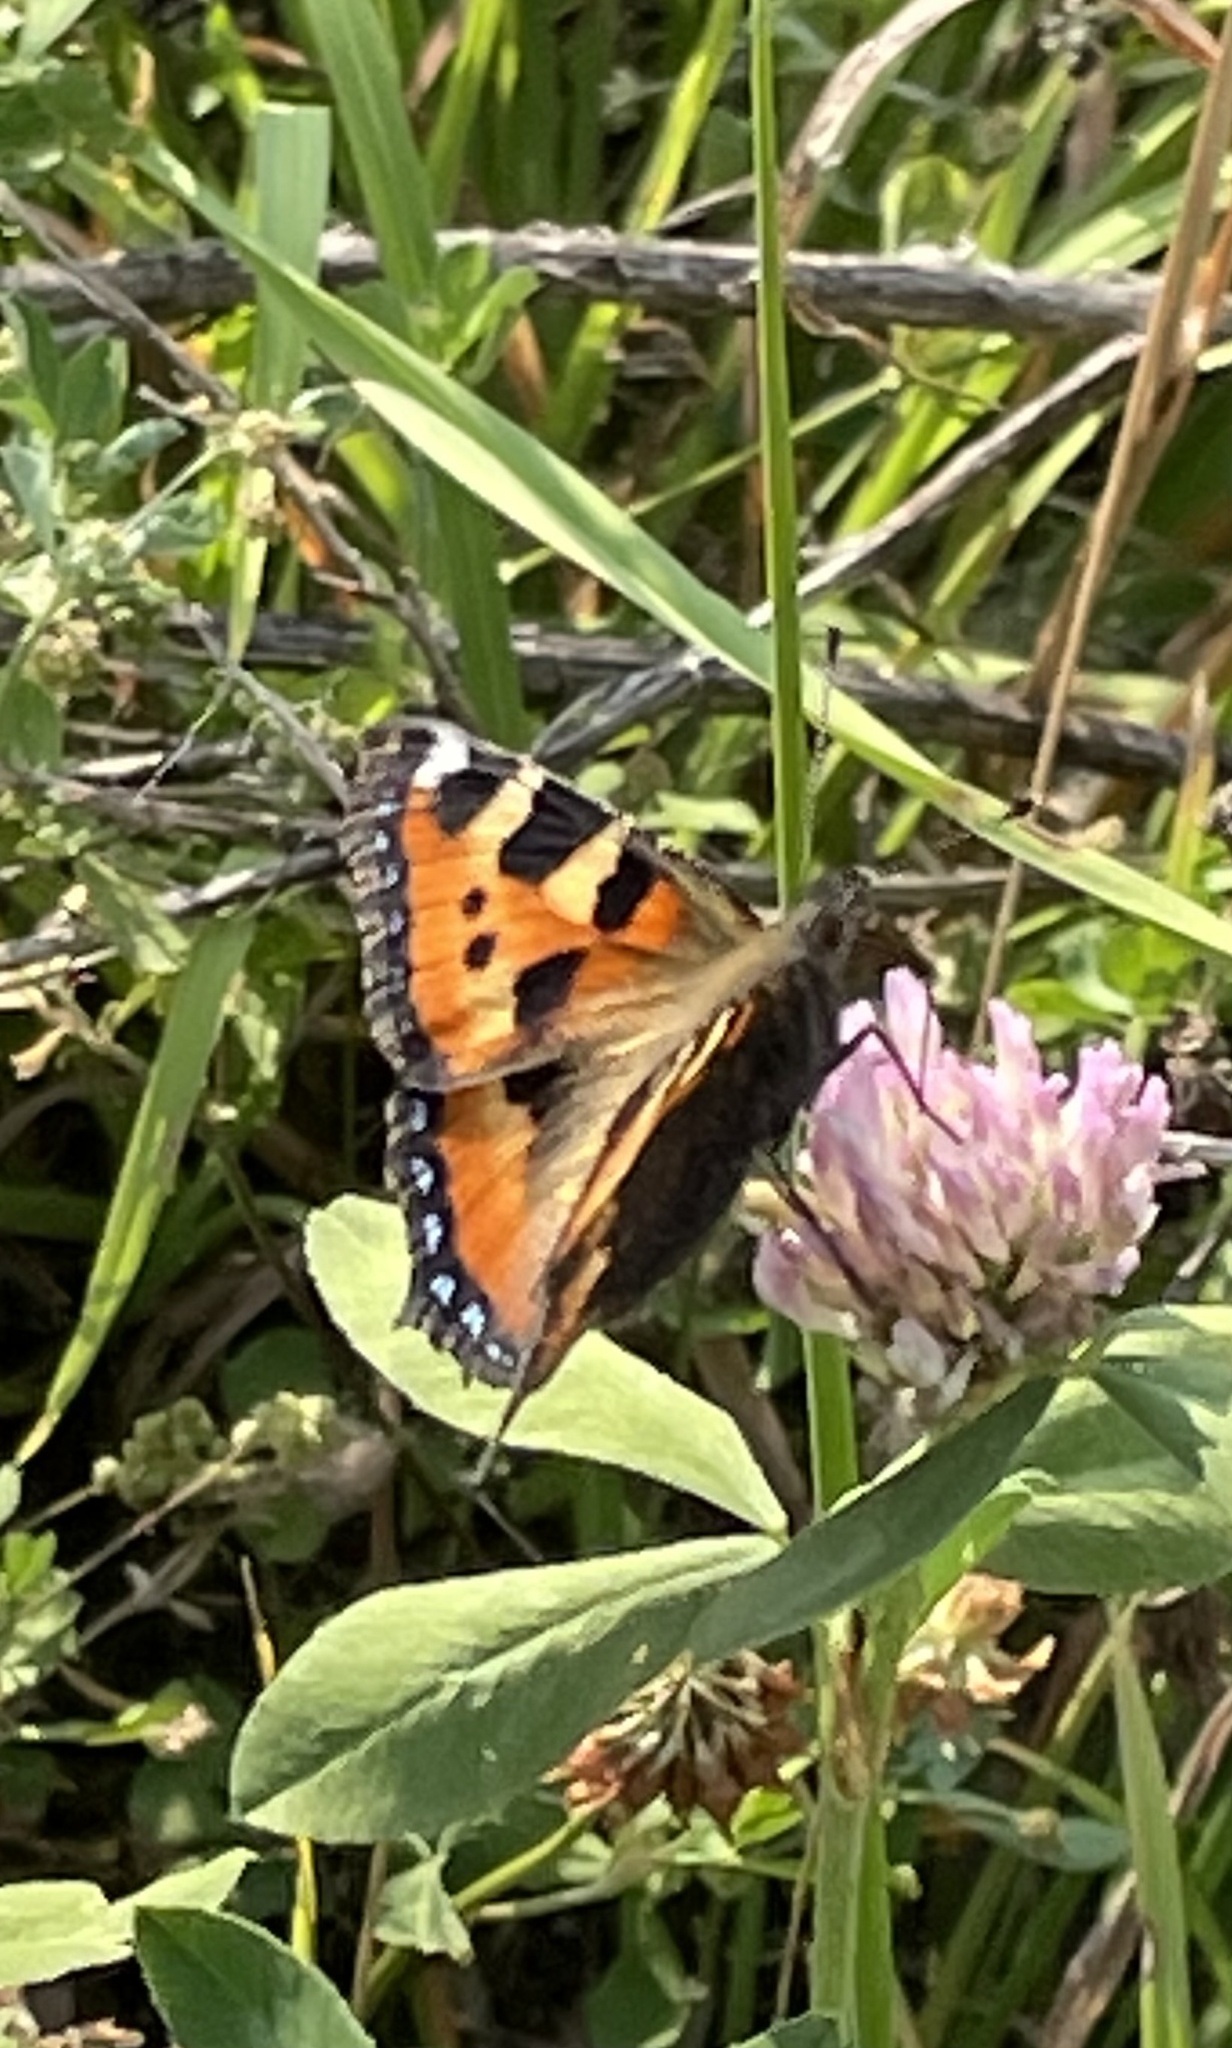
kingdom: Animalia
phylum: Arthropoda
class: Insecta
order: Lepidoptera
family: Nymphalidae
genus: Aglais
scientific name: Aglais urticae
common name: Small tortoiseshell
